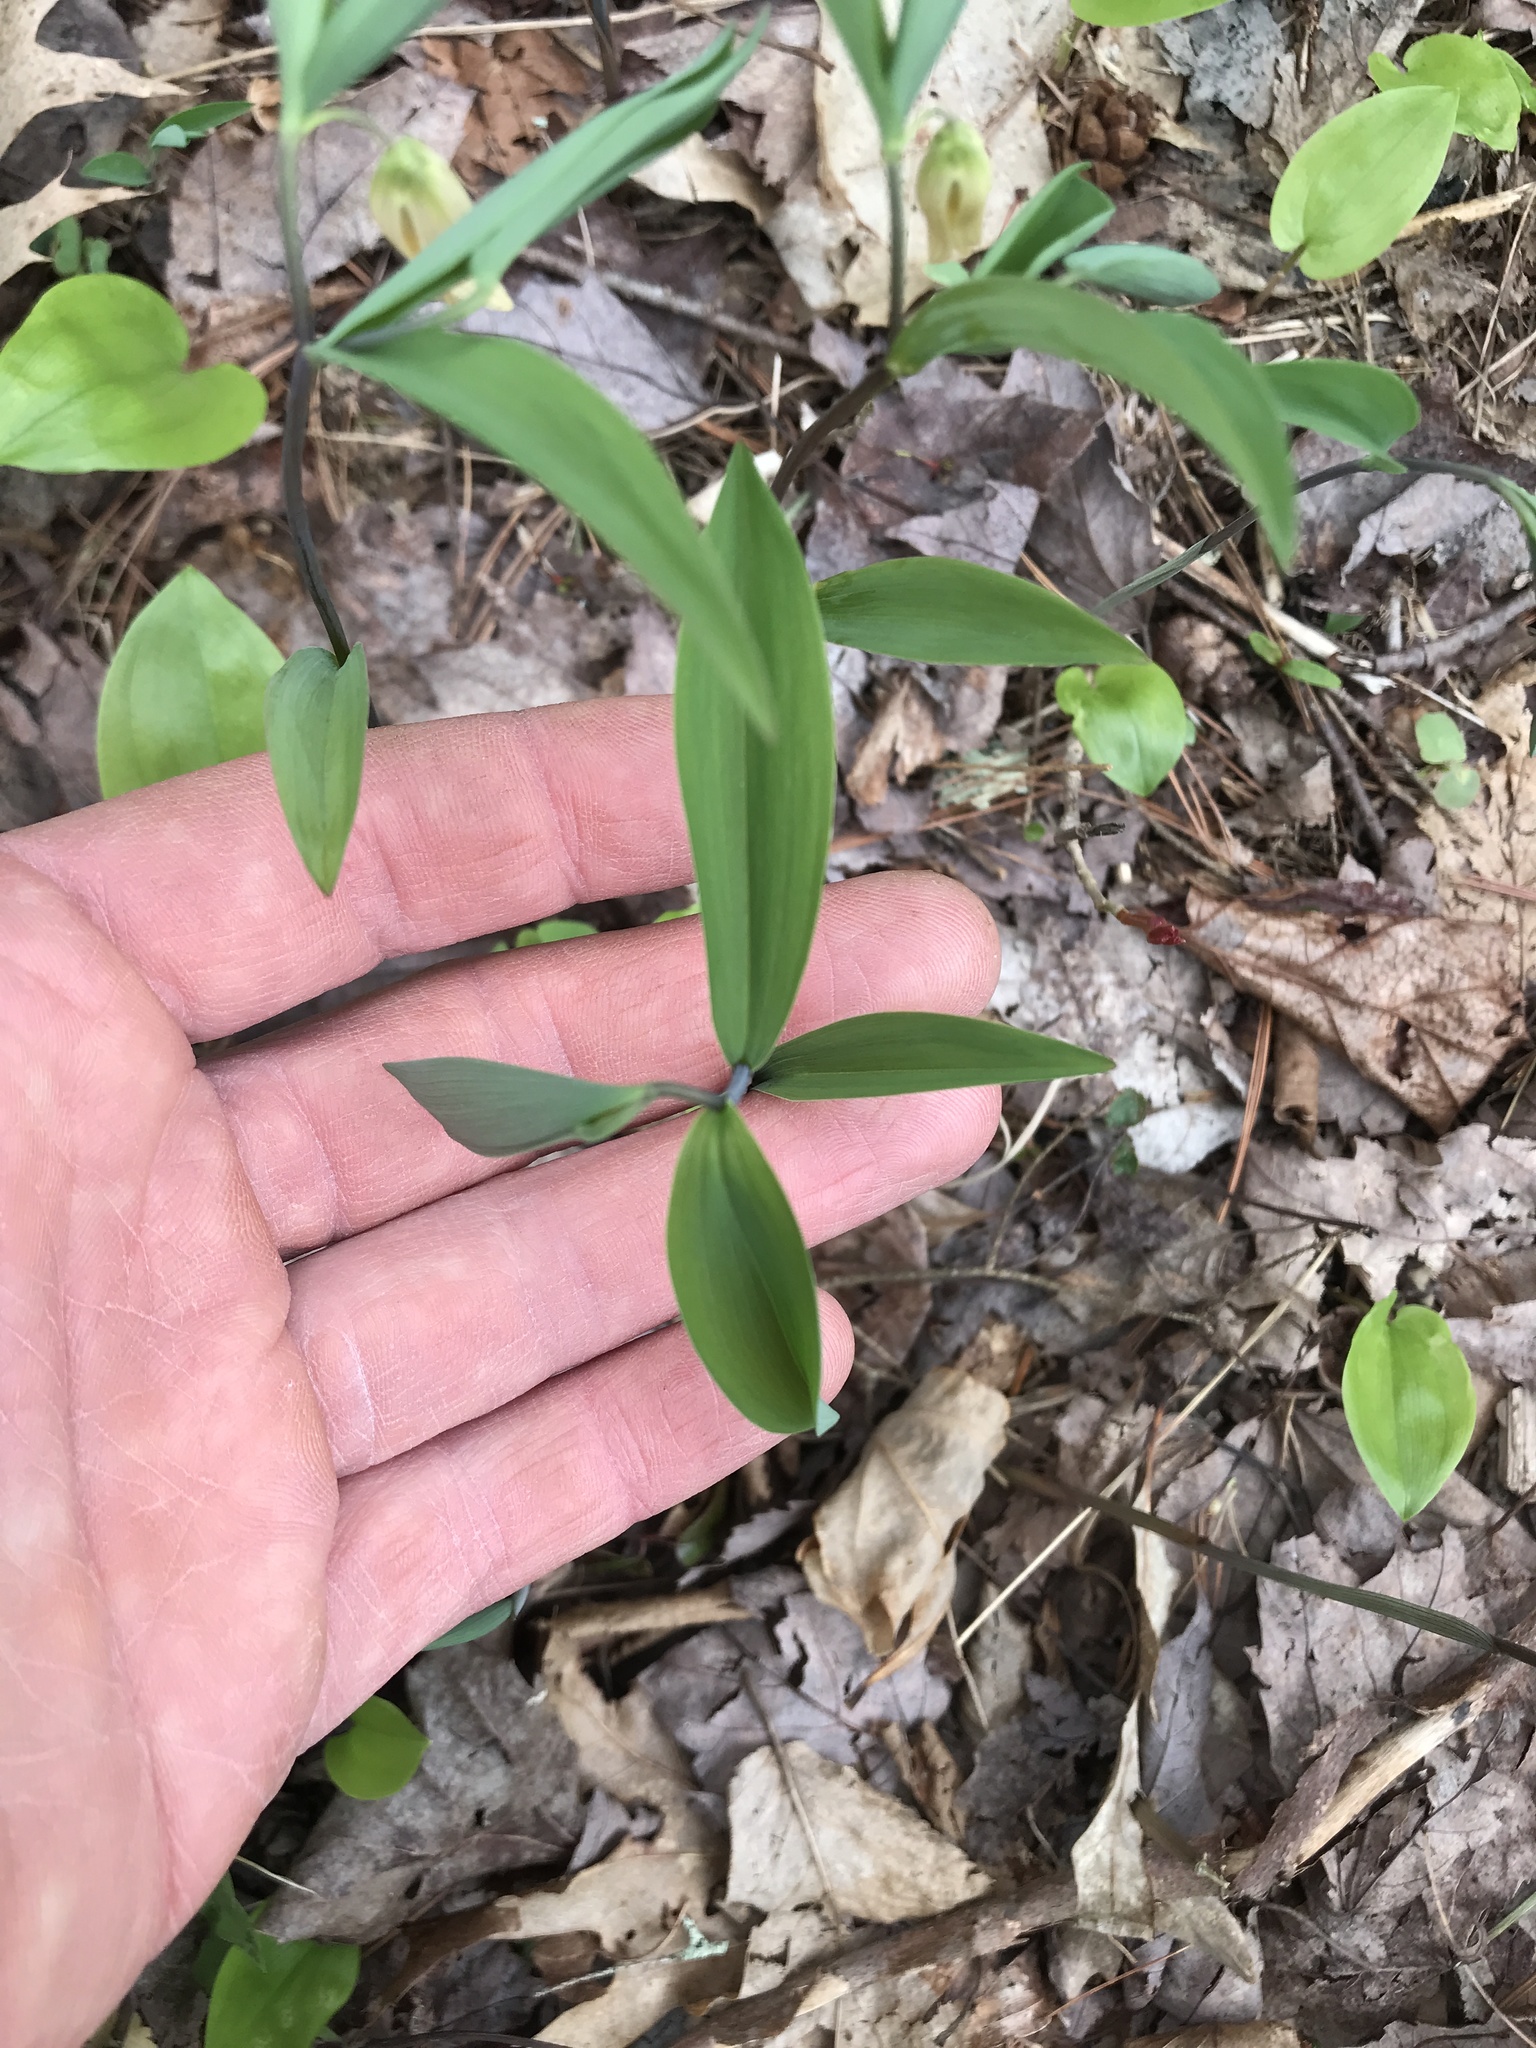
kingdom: Plantae
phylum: Tracheophyta
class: Liliopsida
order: Liliales
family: Colchicaceae
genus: Uvularia
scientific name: Uvularia sessilifolia
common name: Straw-lily
